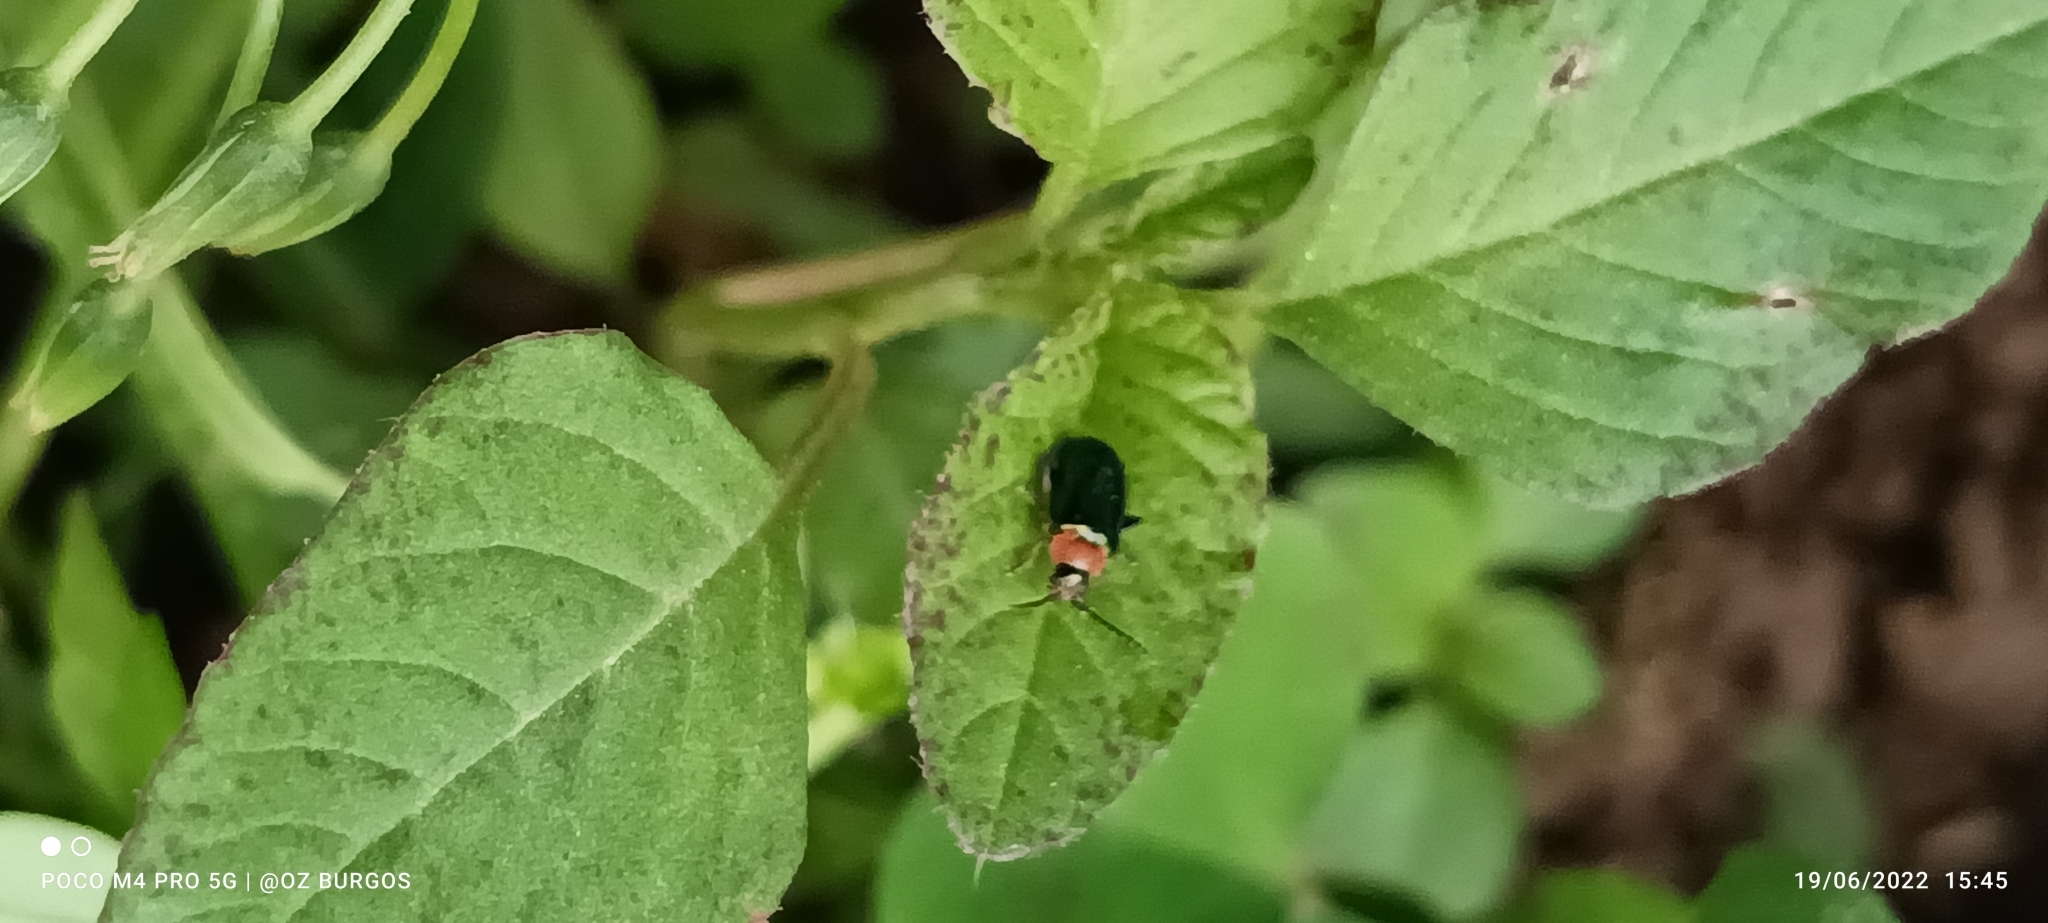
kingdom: Animalia
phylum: Arthropoda
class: Insecta
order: Coleoptera
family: Chrysomelidae
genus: Disonycha
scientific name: Disonycha politula
